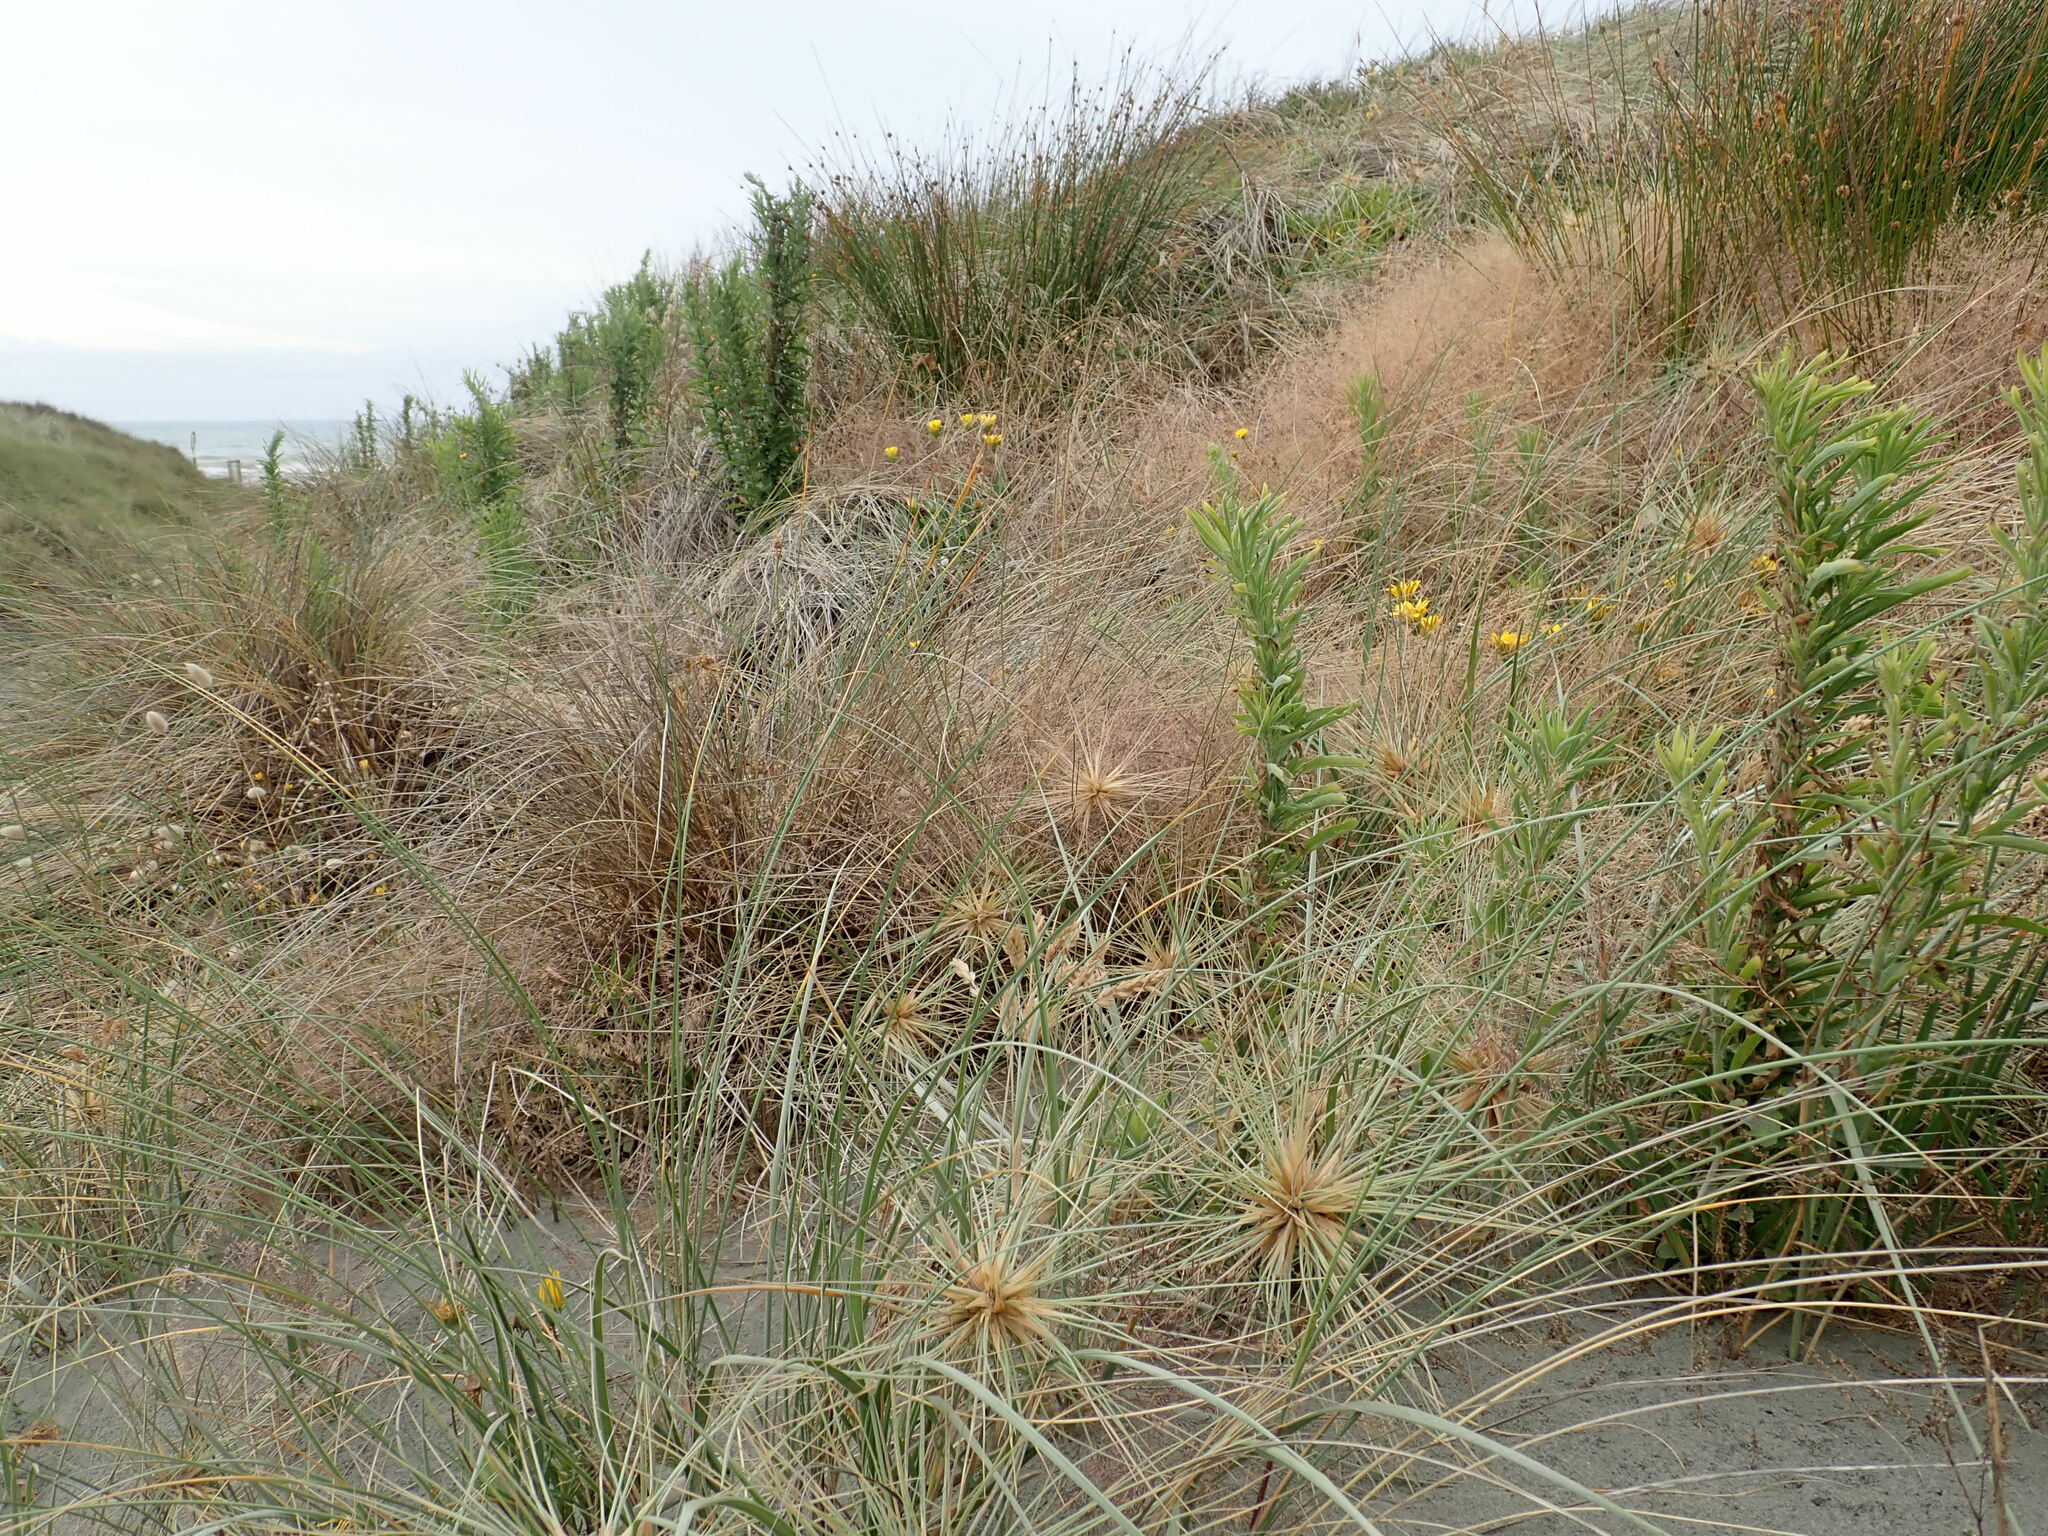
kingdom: Plantae
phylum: Tracheophyta
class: Magnoliopsida
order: Asterales
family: Asteraceae
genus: Erigeron
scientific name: Erigeron sumatrensis
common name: Daisy
